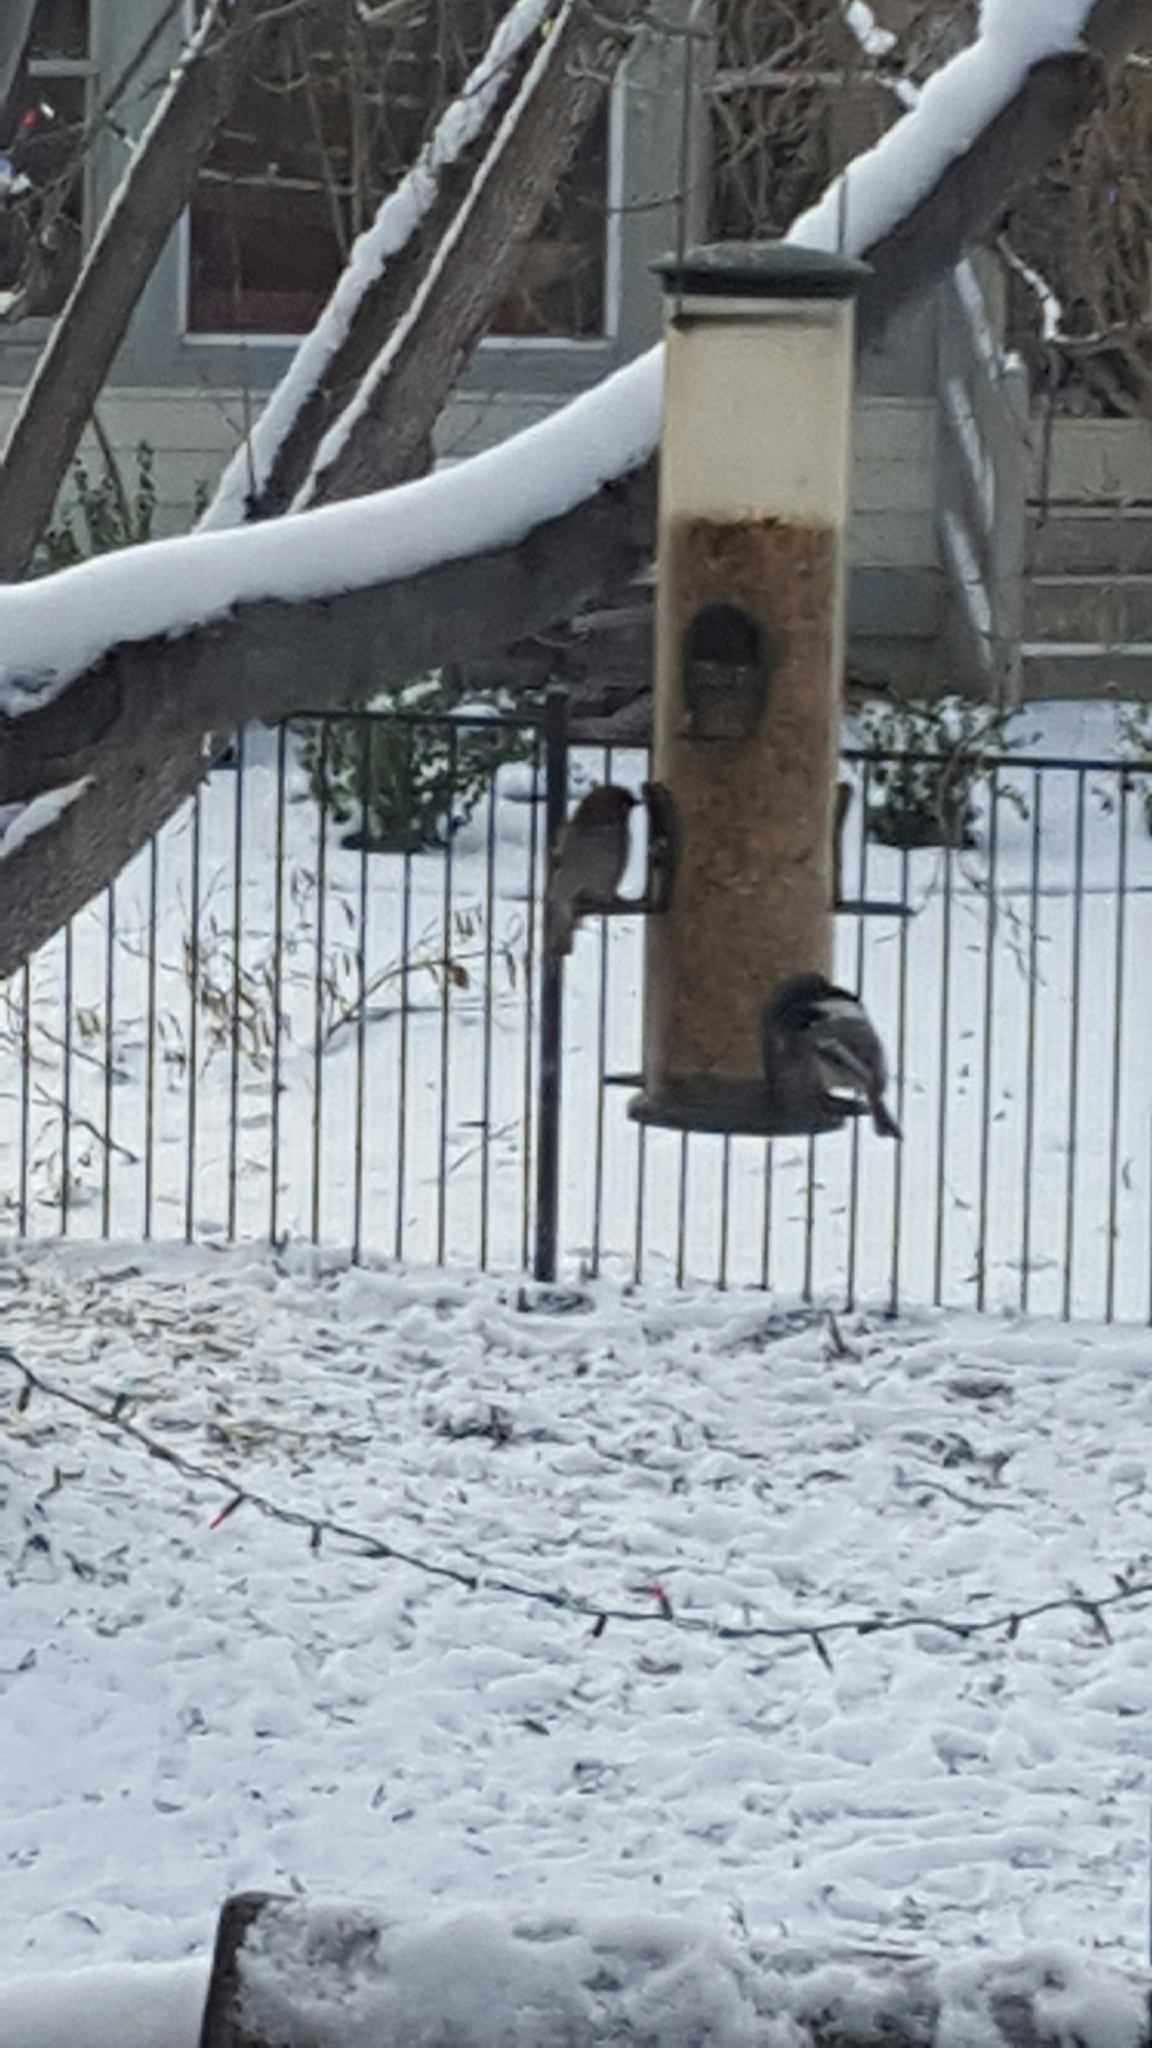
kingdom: Animalia
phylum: Chordata
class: Aves
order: Passeriformes
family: Passeridae
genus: Passer
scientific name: Passer domesticus
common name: House sparrow
